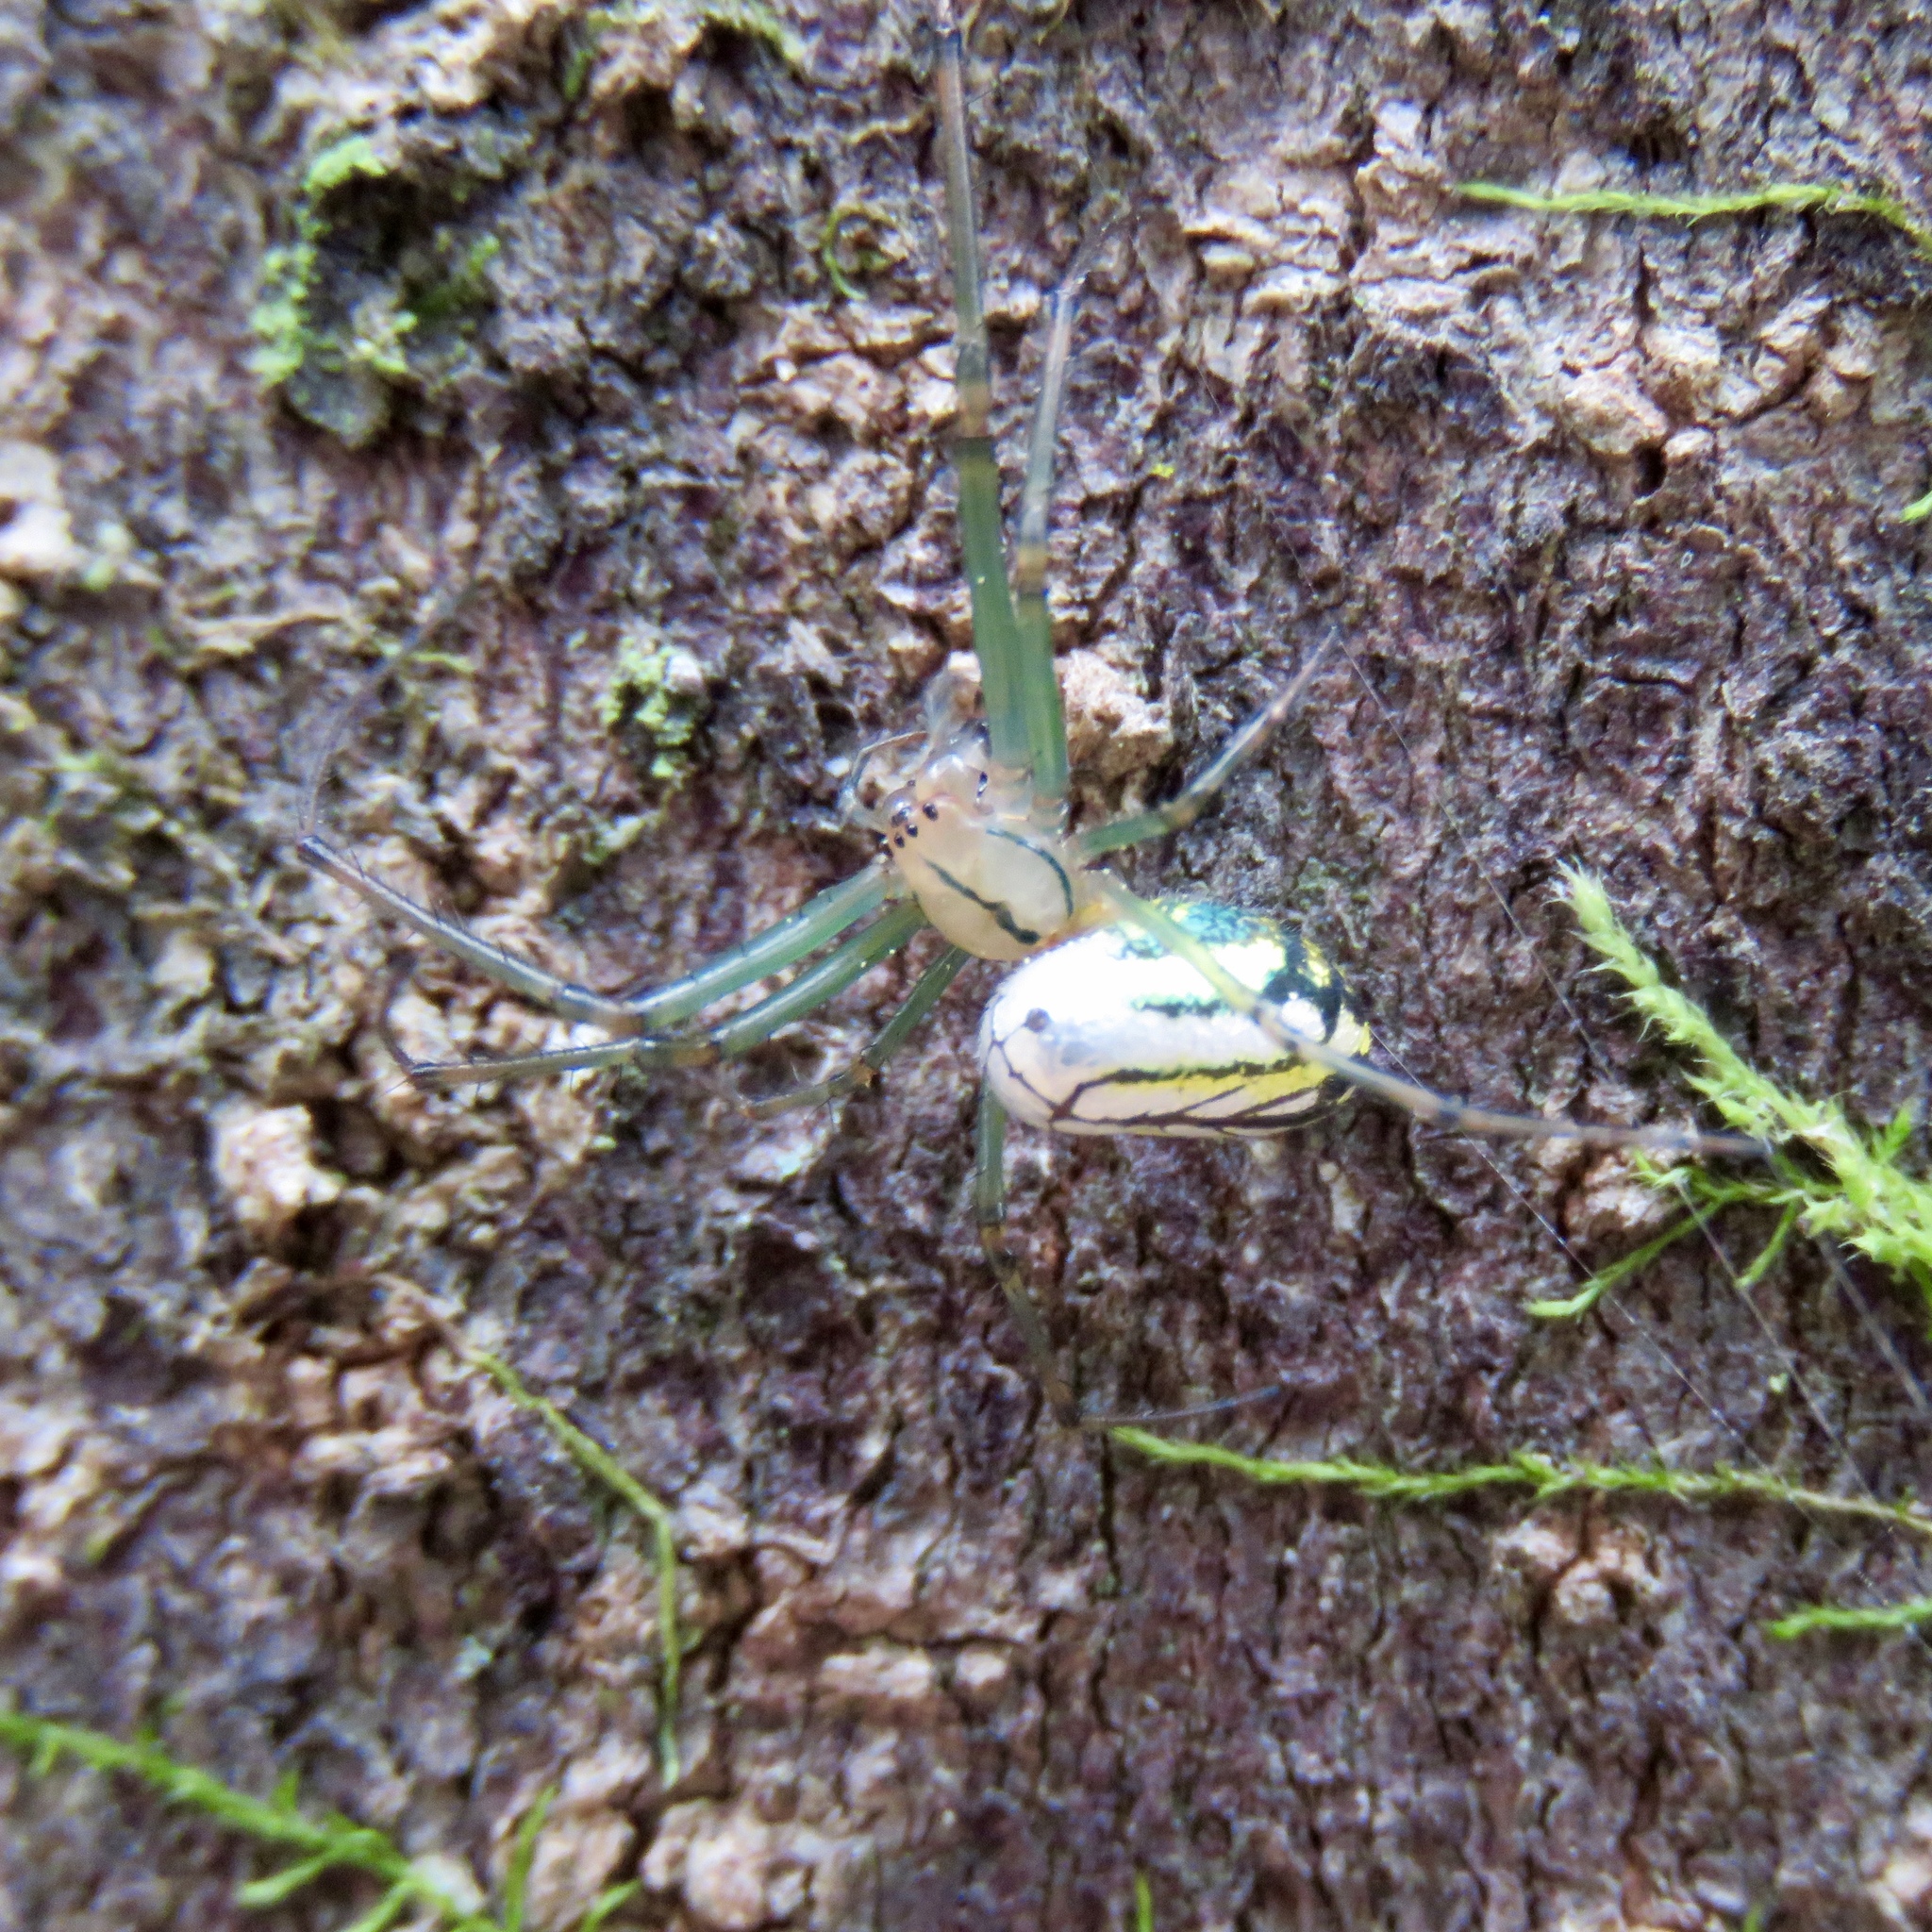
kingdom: Animalia
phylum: Arthropoda
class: Arachnida
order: Araneae
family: Tetragnathidae
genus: Leucauge
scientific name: Leucauge venusta
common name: Longjawed orb weavers
